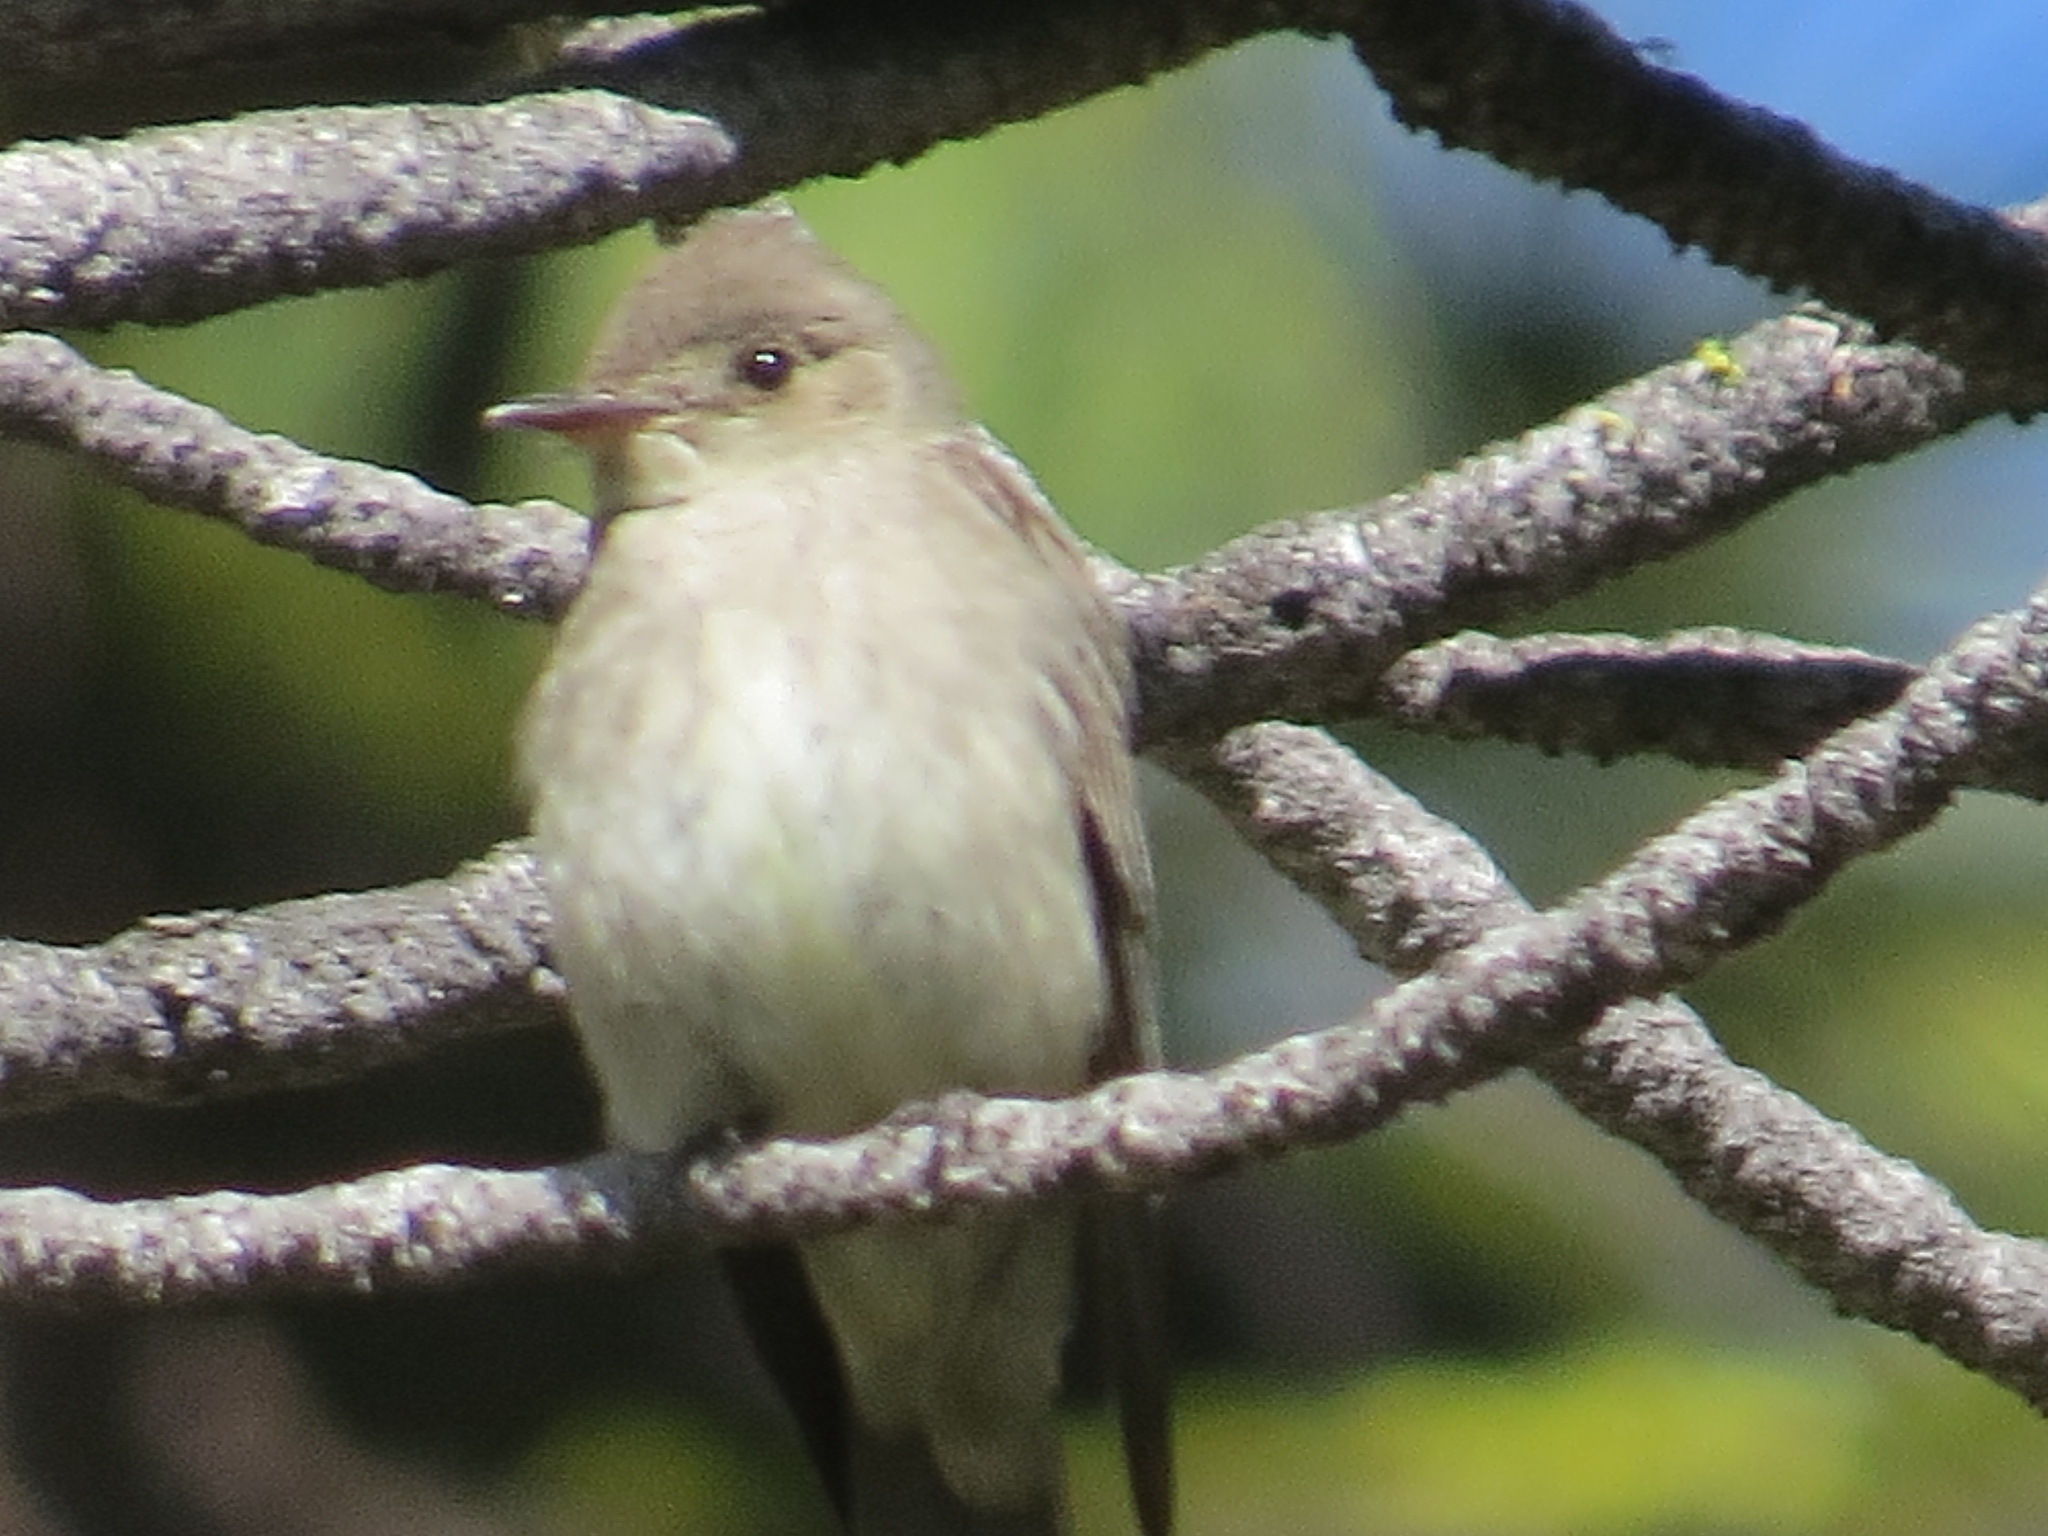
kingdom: Animalia
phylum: Chordata
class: Aves
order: Passeriformes
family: Tyrannidae
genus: Contopus
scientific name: Contopus sordidulus
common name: Western wood-pewee
